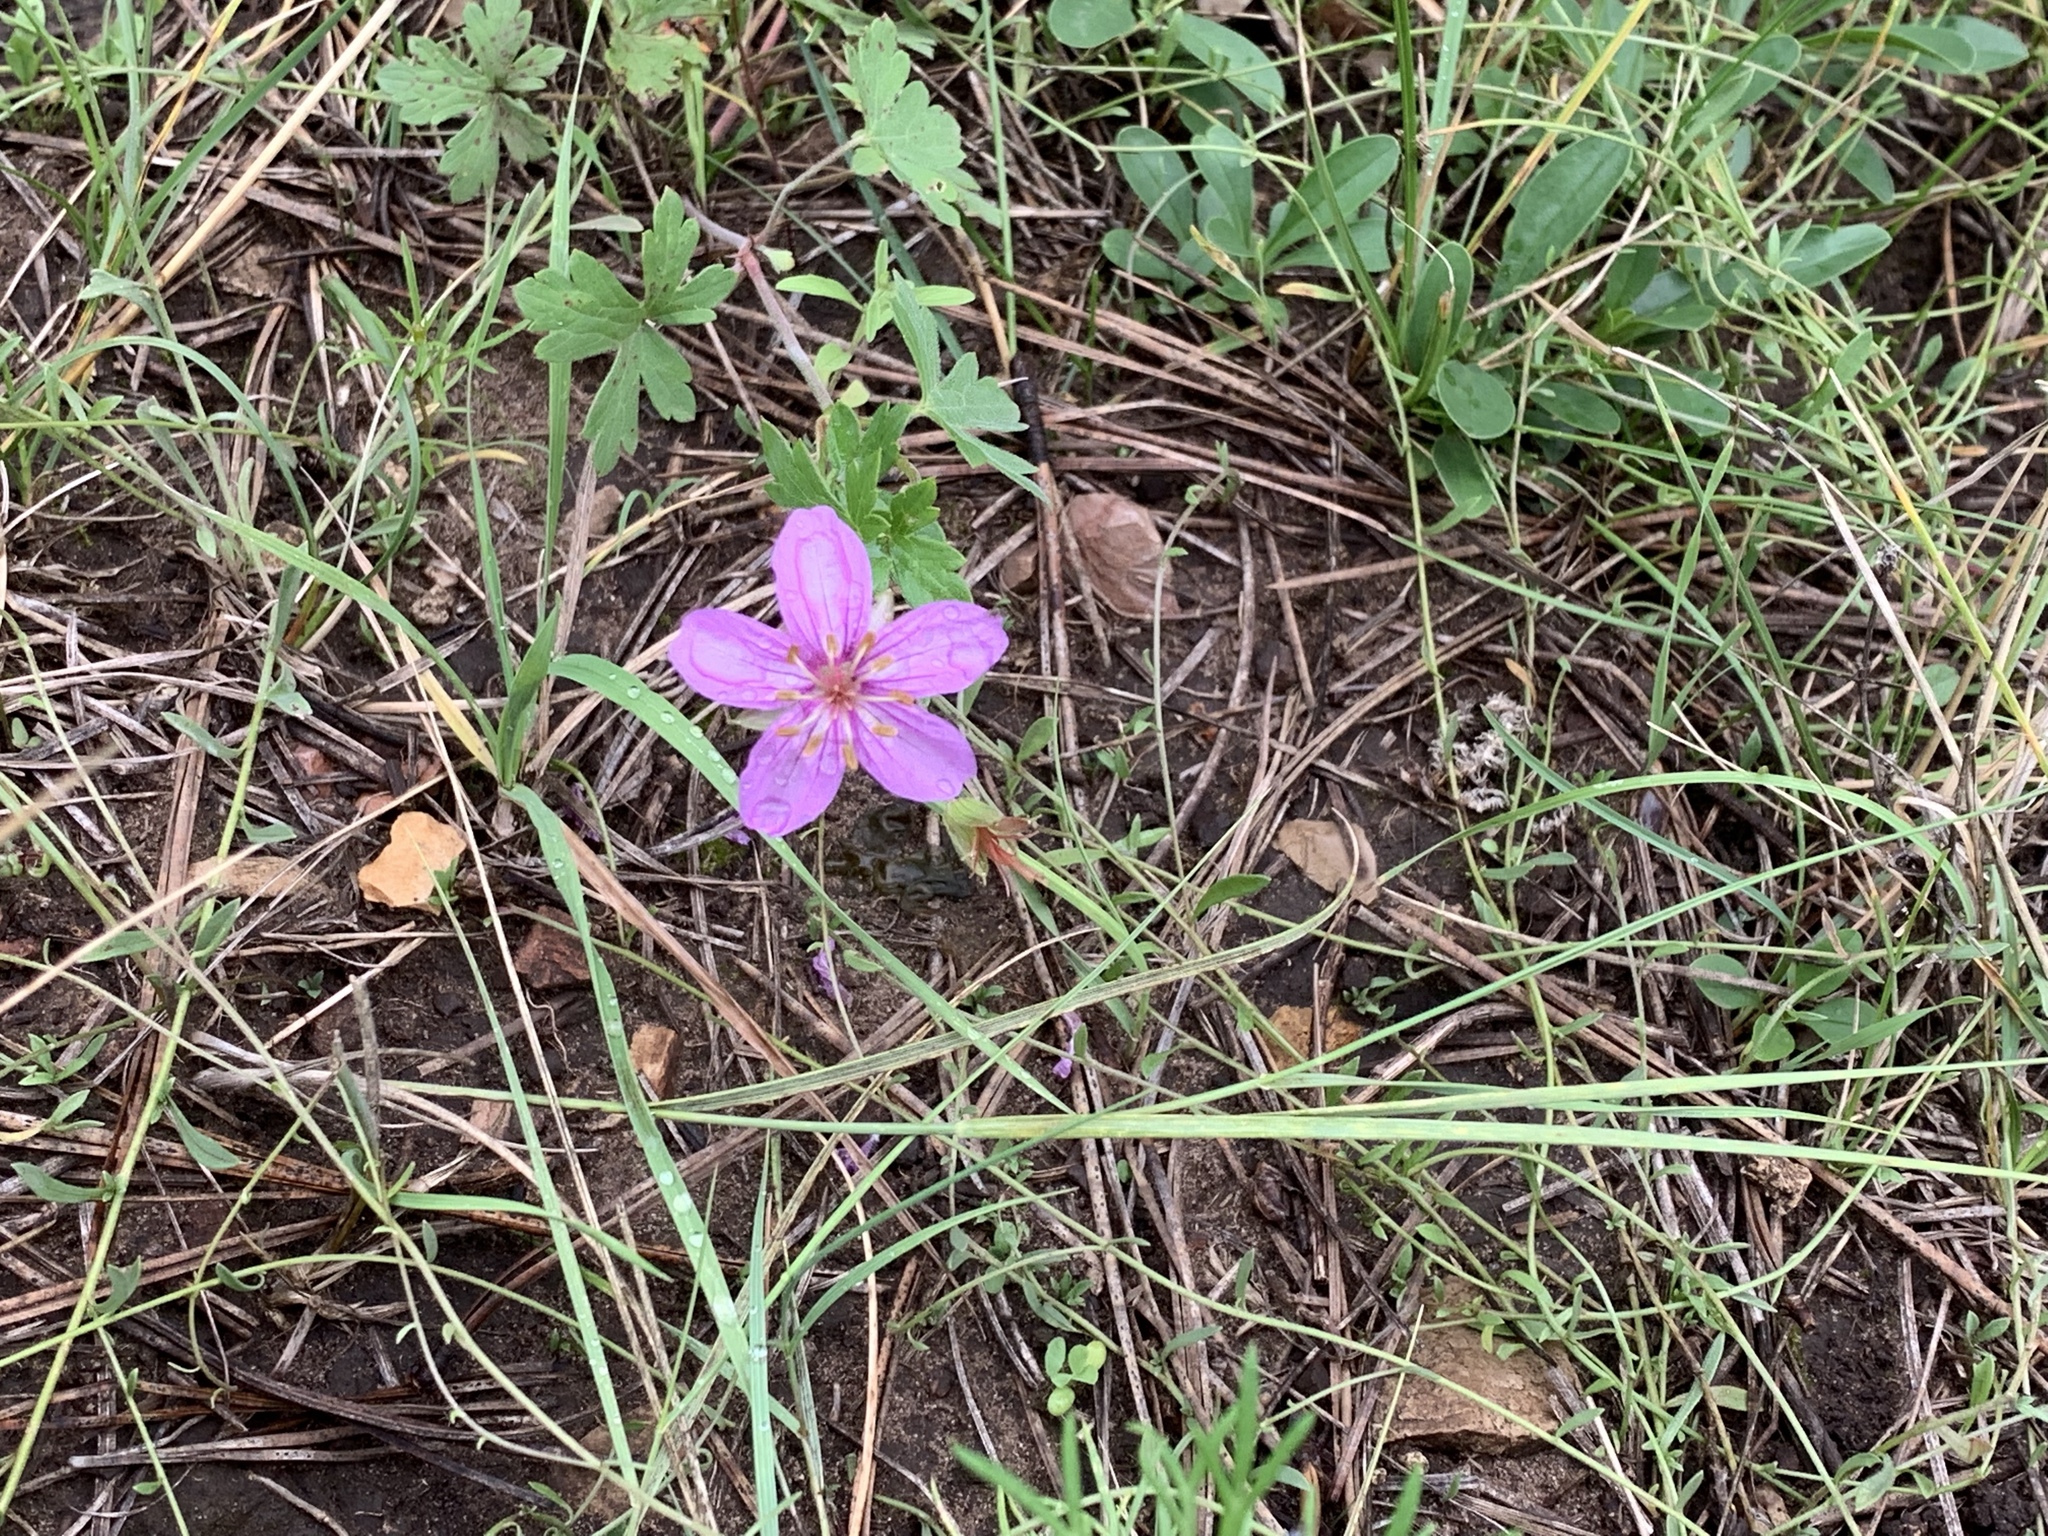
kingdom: Plantae
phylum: Tracheophyta
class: Magnoliopsida
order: Geraniales
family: Geraniaceae
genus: Geranium
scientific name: Geranium caespitosum
